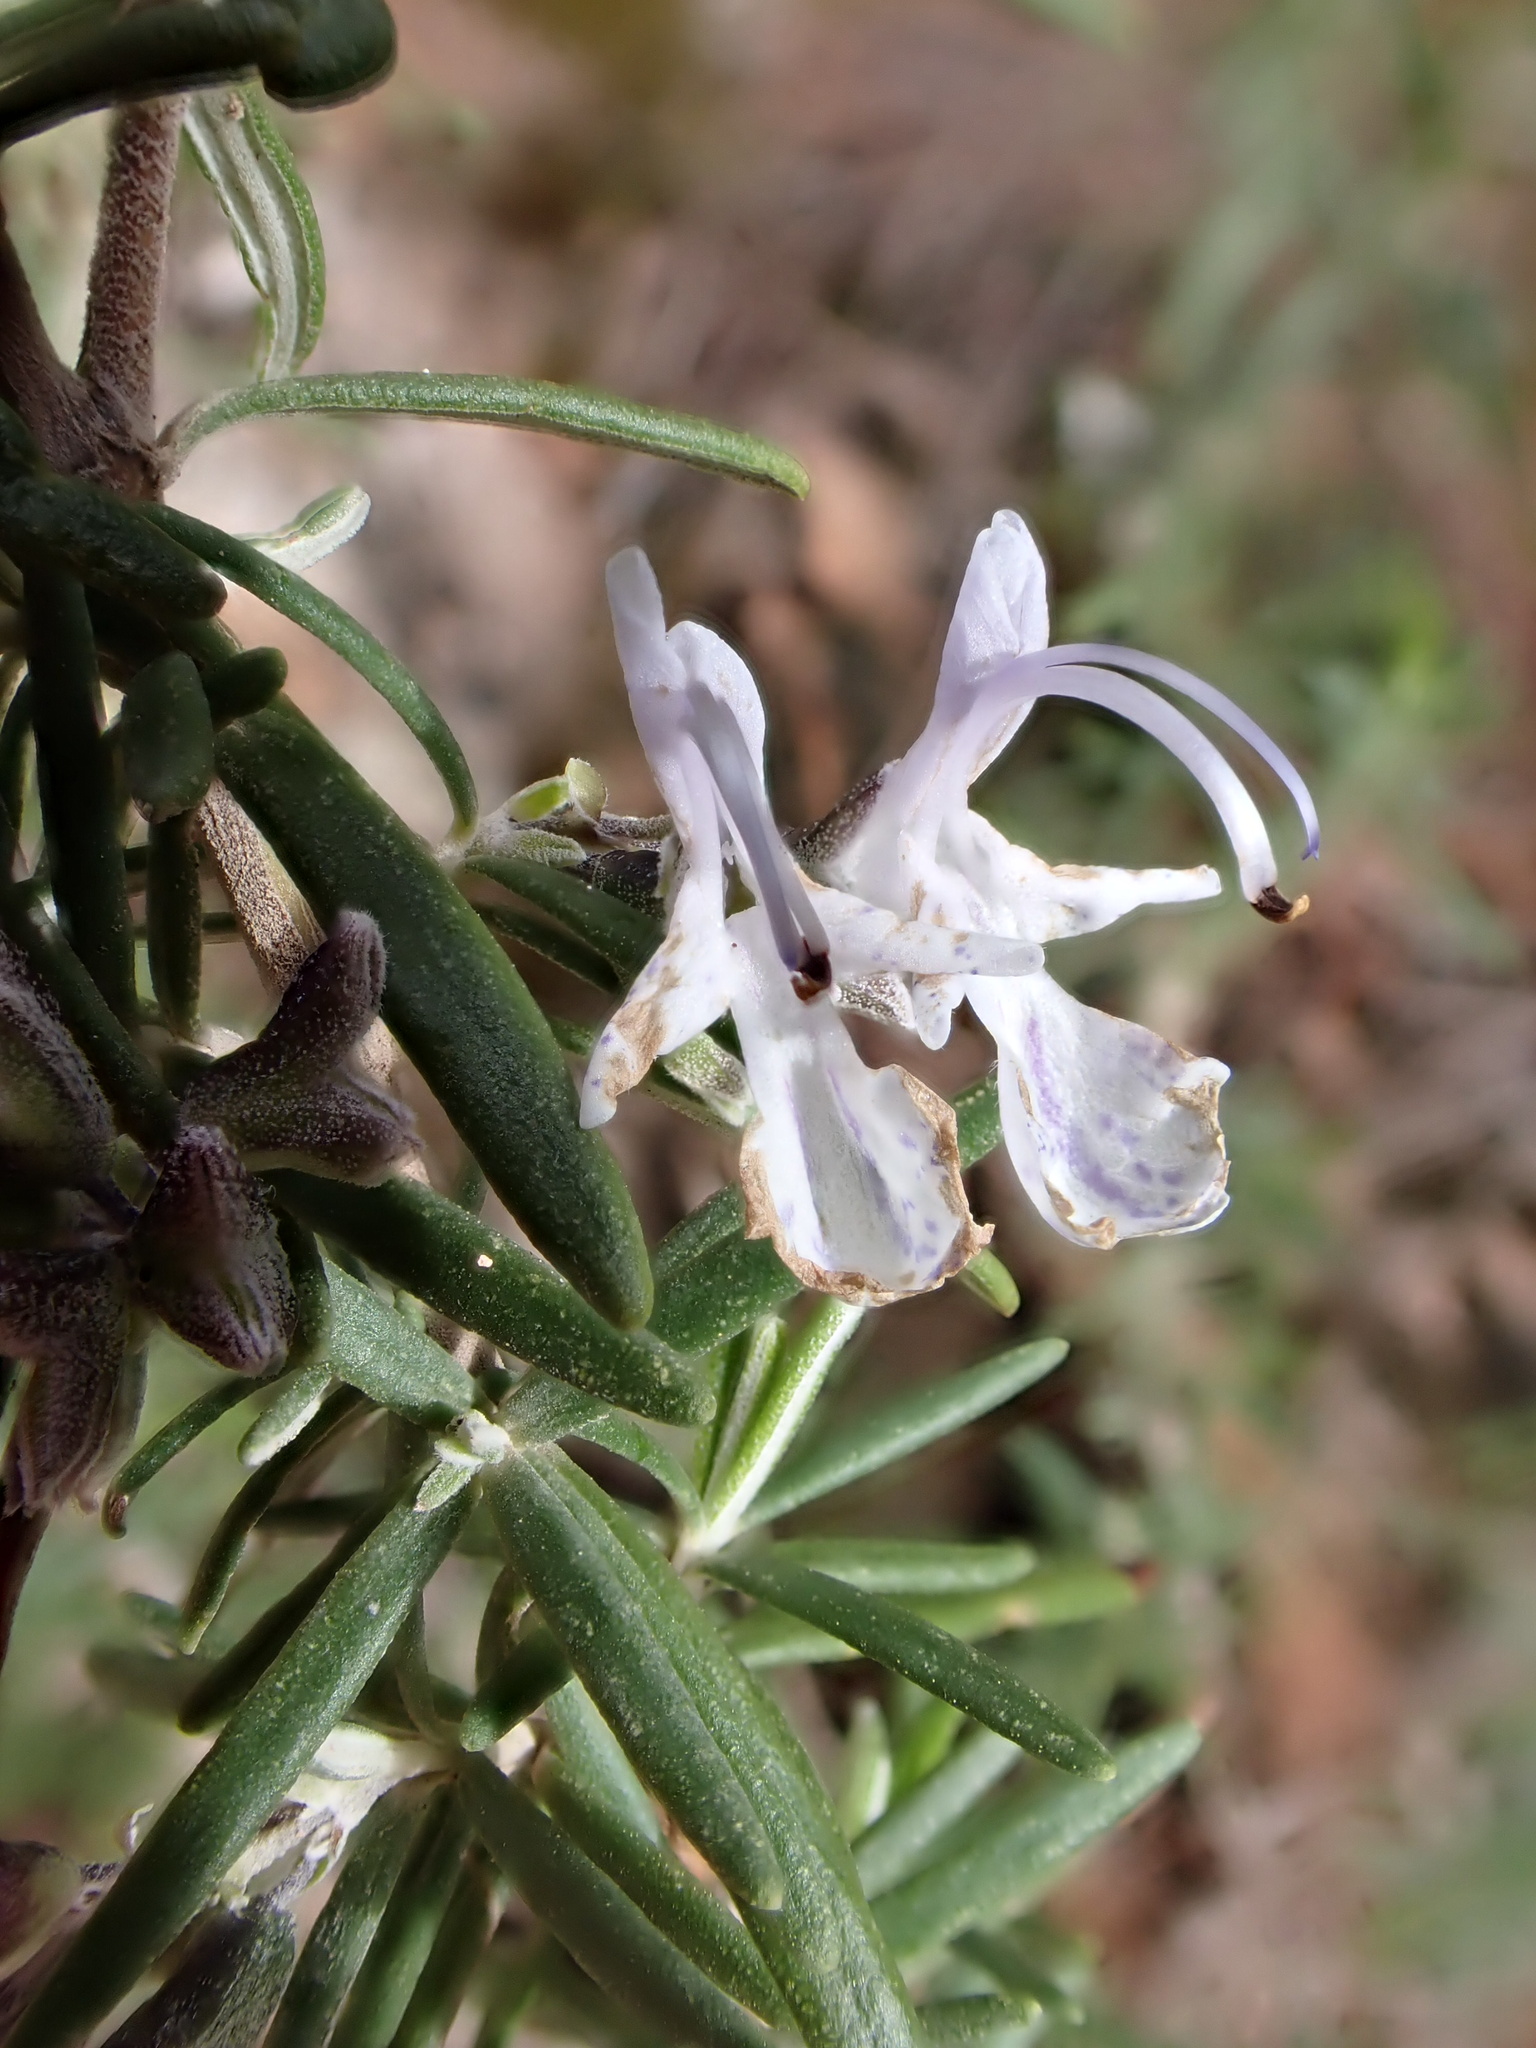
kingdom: Plantae
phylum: Tracheophyta
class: Magnoliopsida
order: Lamiales
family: Lamiaceae
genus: Salvia
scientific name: Salvia rosmarinus
